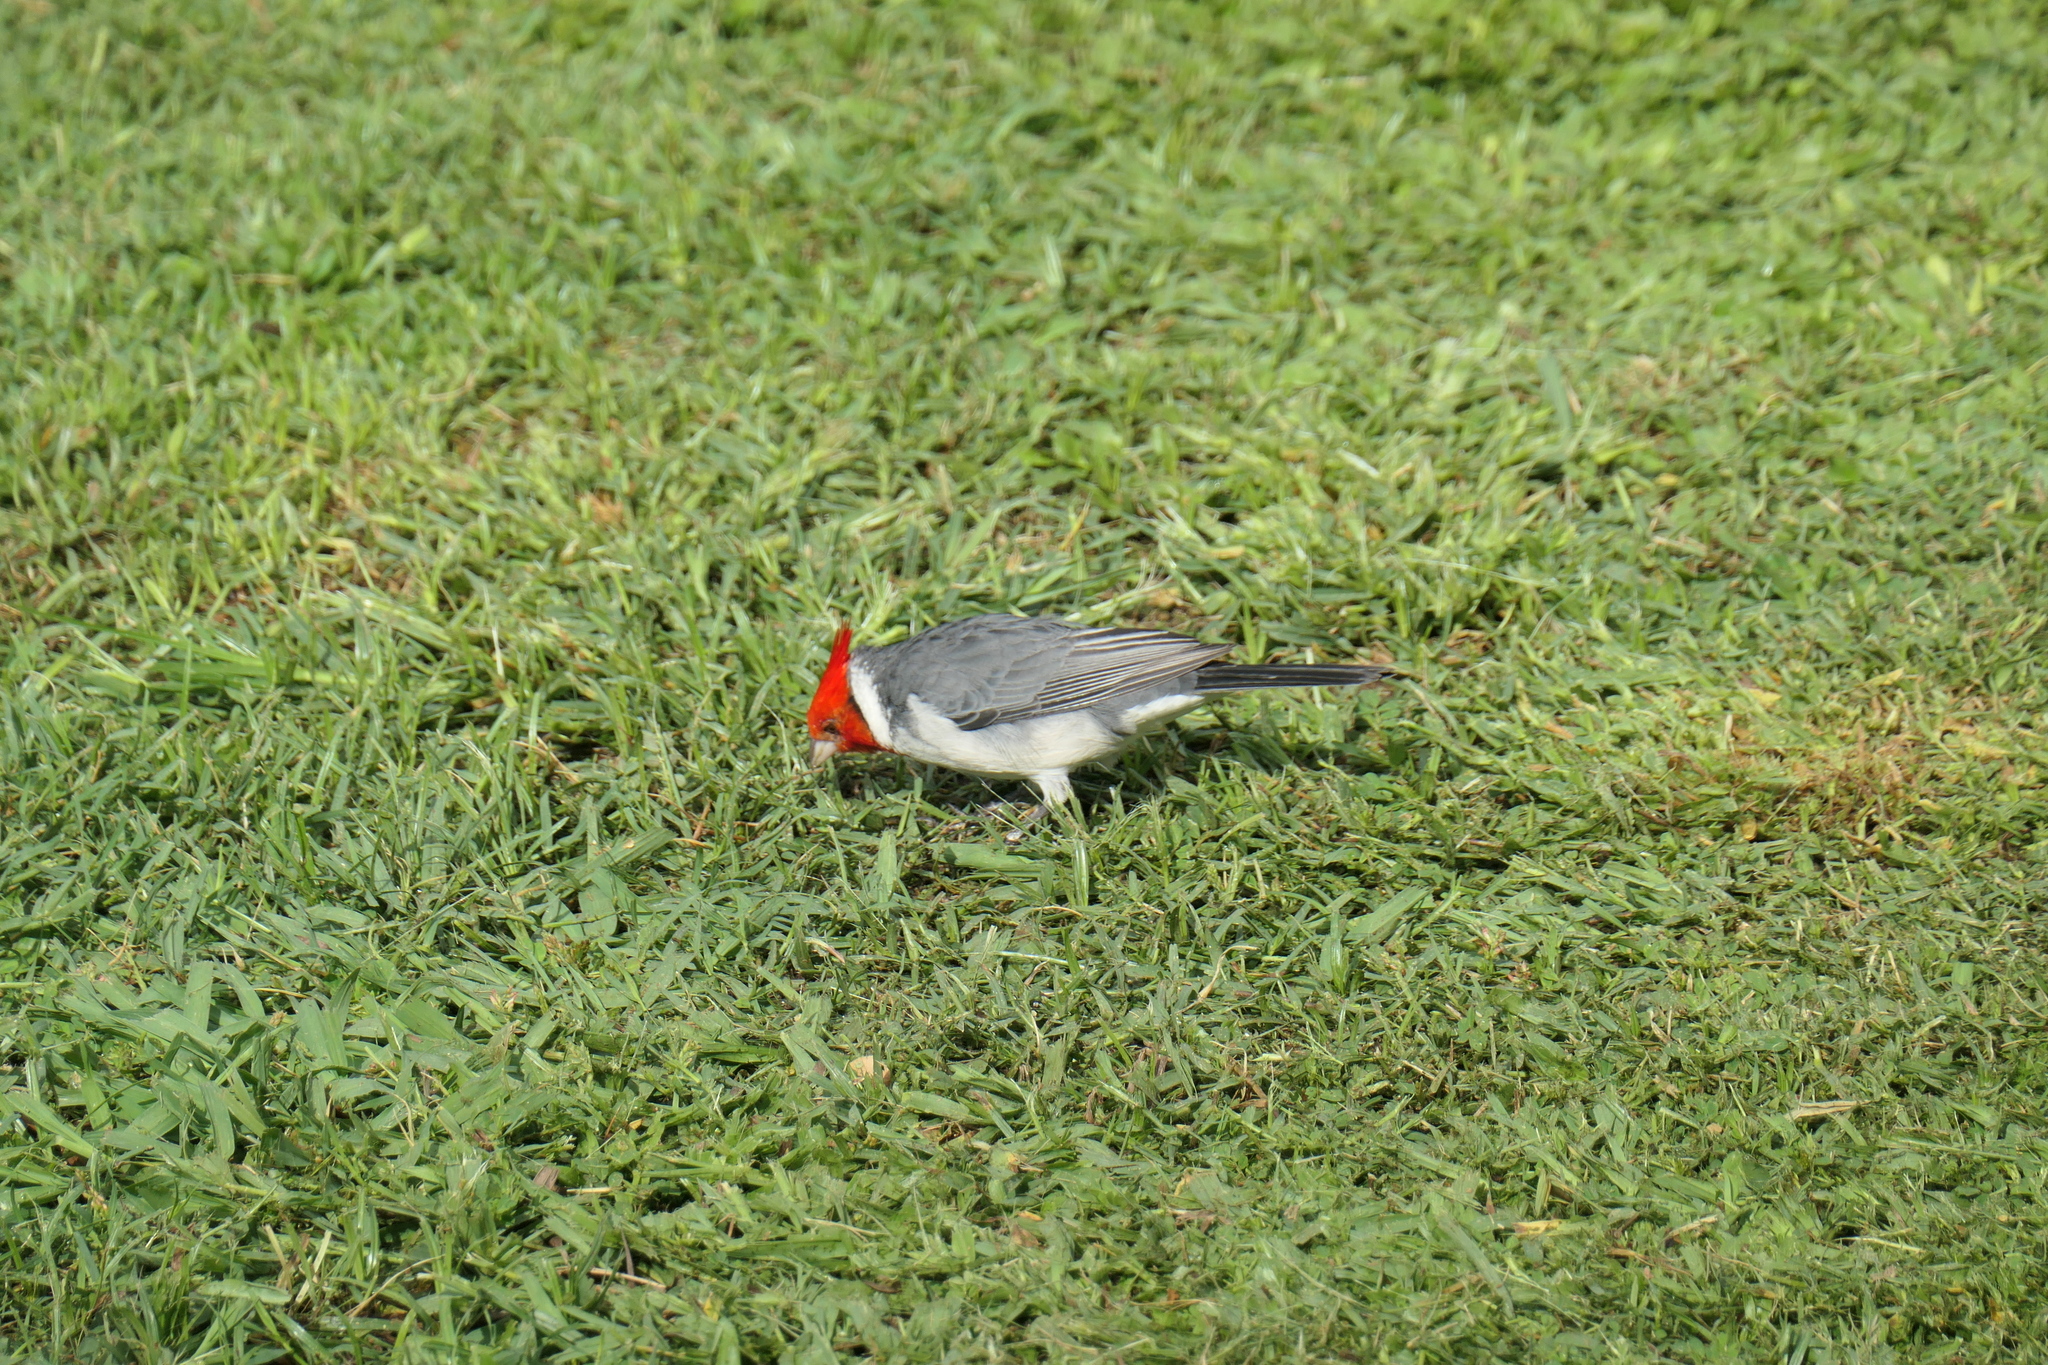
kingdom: Animalia
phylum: Chordata
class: Aves
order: Passeriformes
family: Thraupidae
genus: Paroaria
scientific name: Paroaria coronata
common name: Red-crested cardinal
